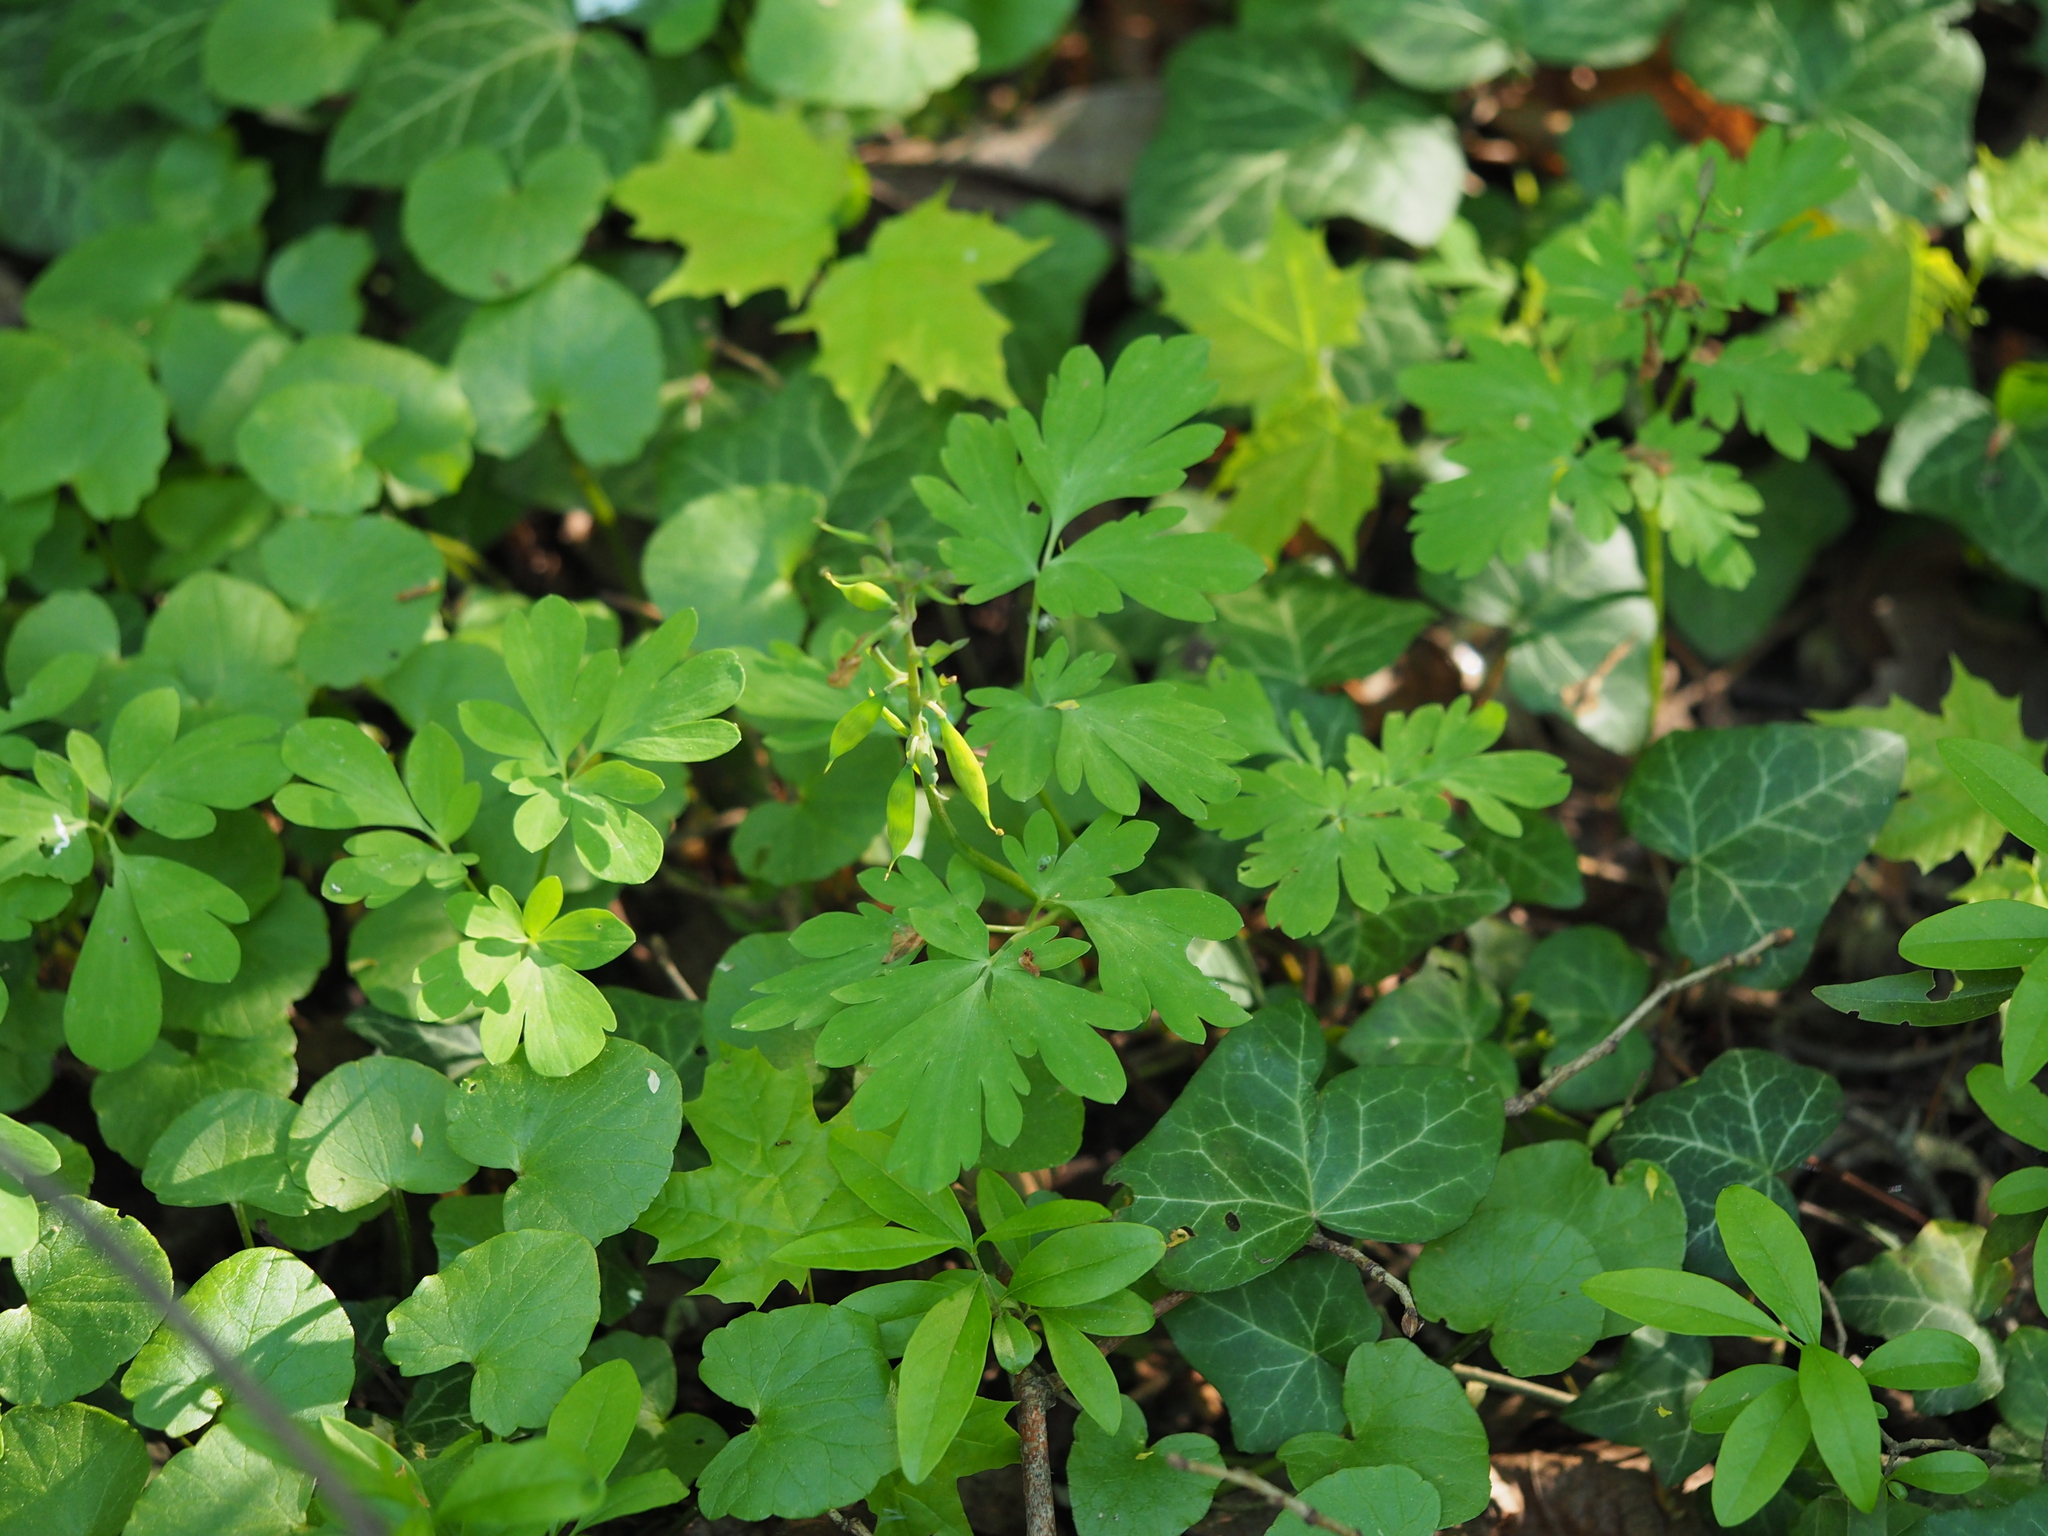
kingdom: Plantae
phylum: Tracheophyta
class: Magnoliopsida
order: Ranunculales
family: Papaveraceae
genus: Corydalis
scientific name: Corydalis cava
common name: Hollowroot
